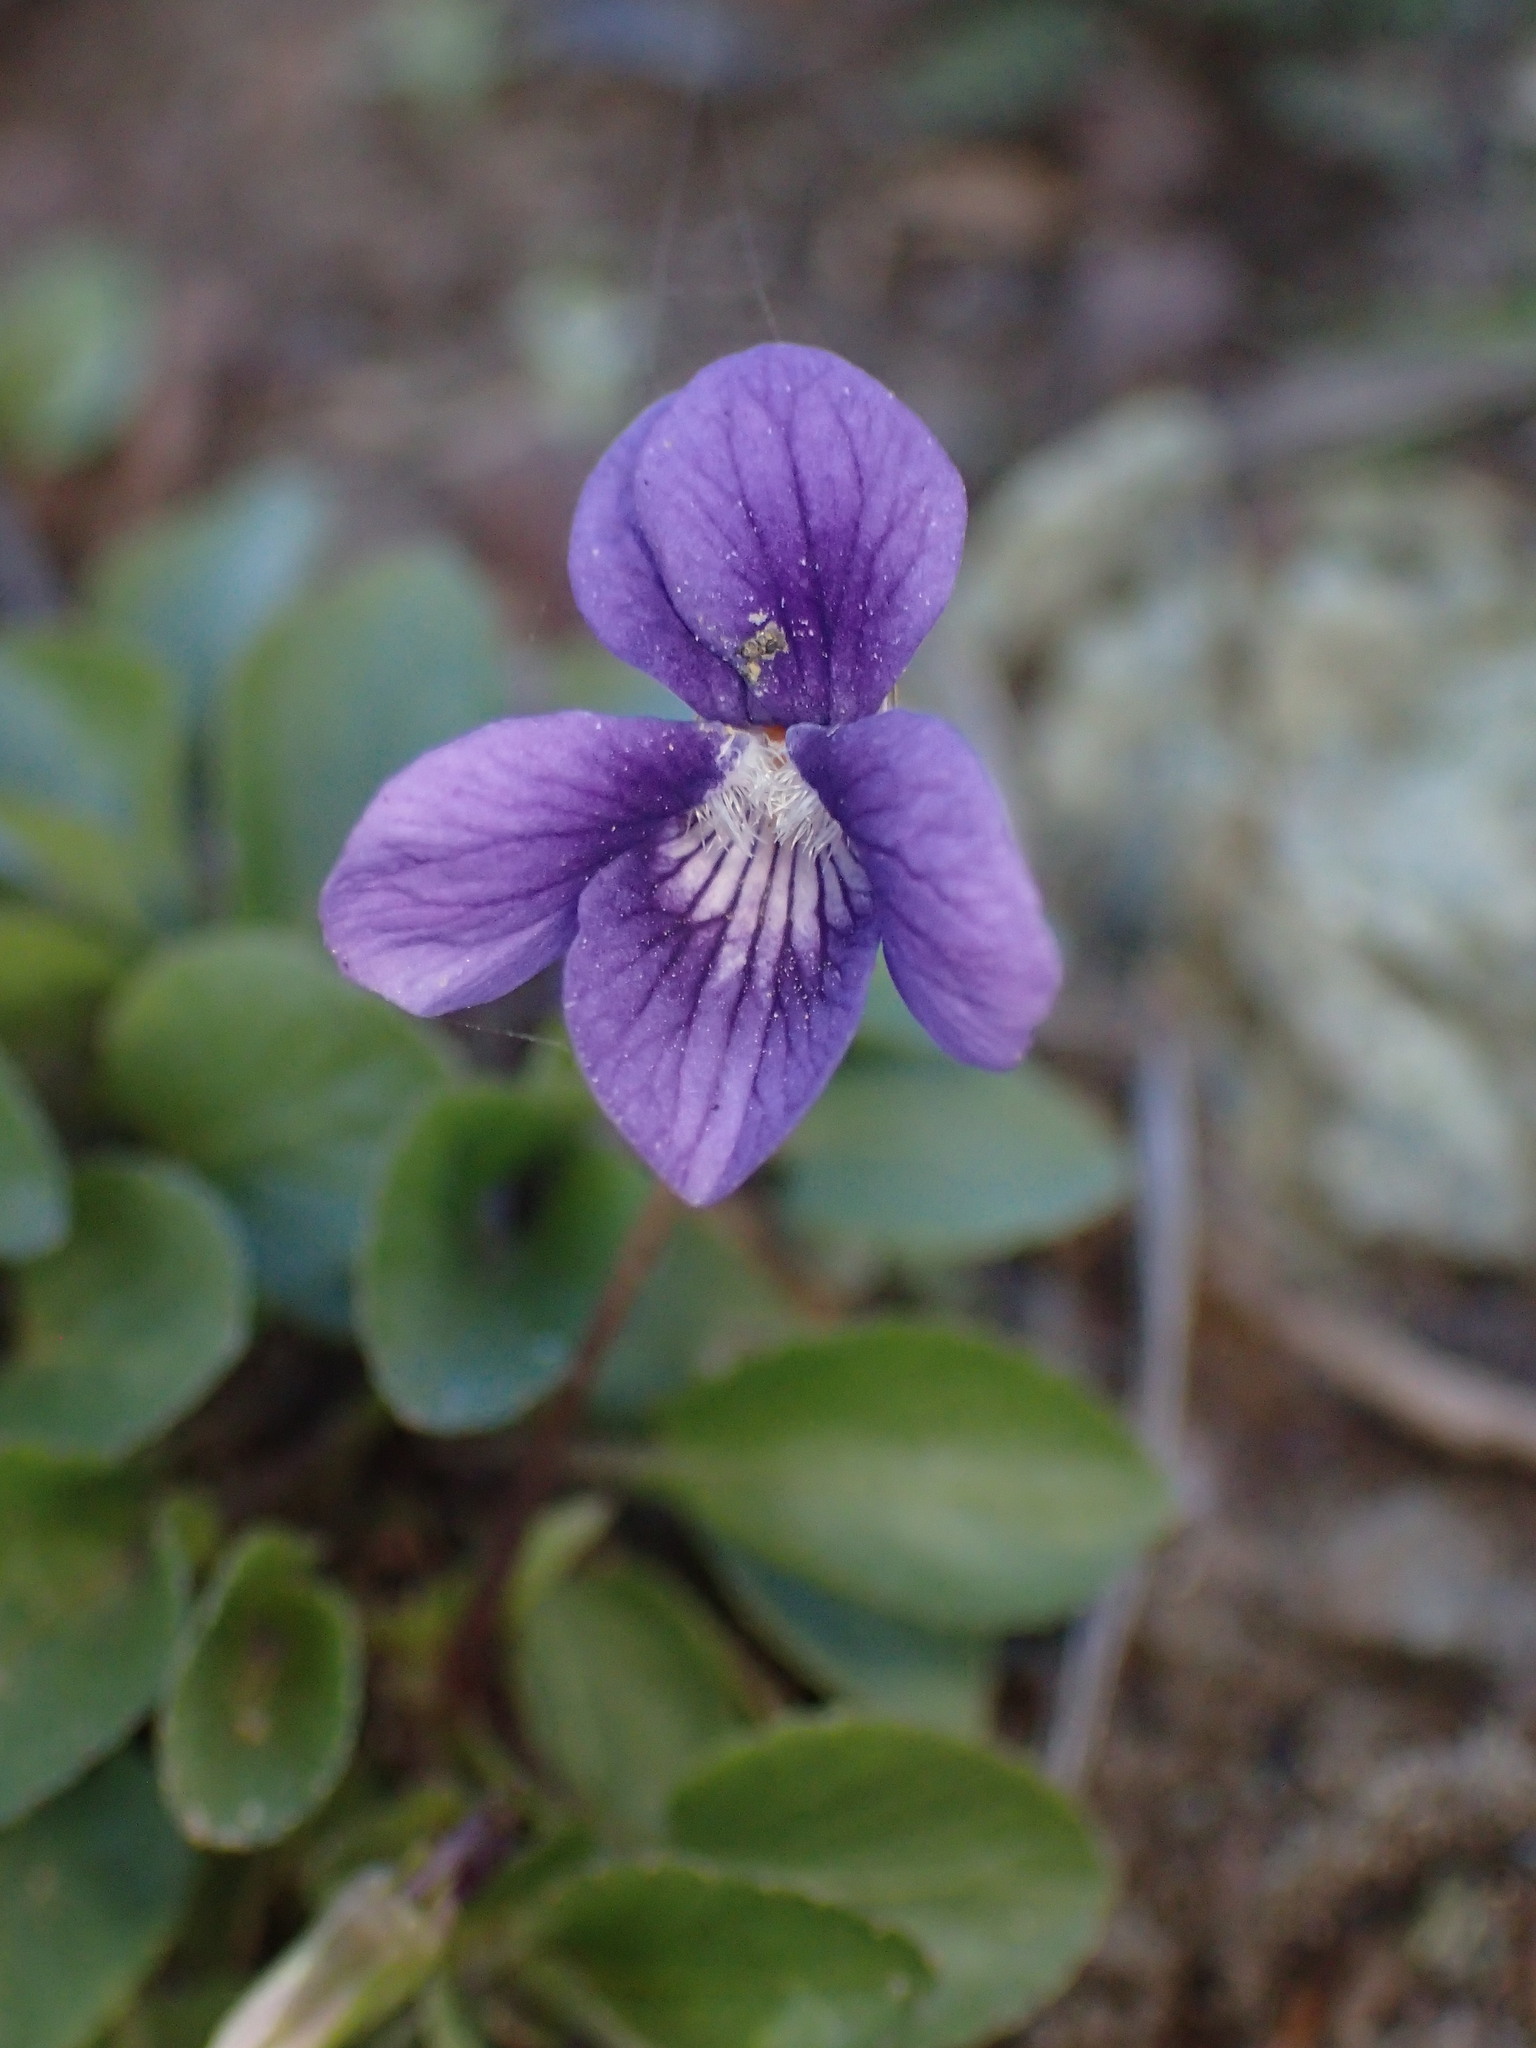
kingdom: Plantae
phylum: Tracheophyta
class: Magnoliopsida
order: Malpighiales
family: Violaceae
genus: Viola
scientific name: Viola adunca
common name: Sand violet
